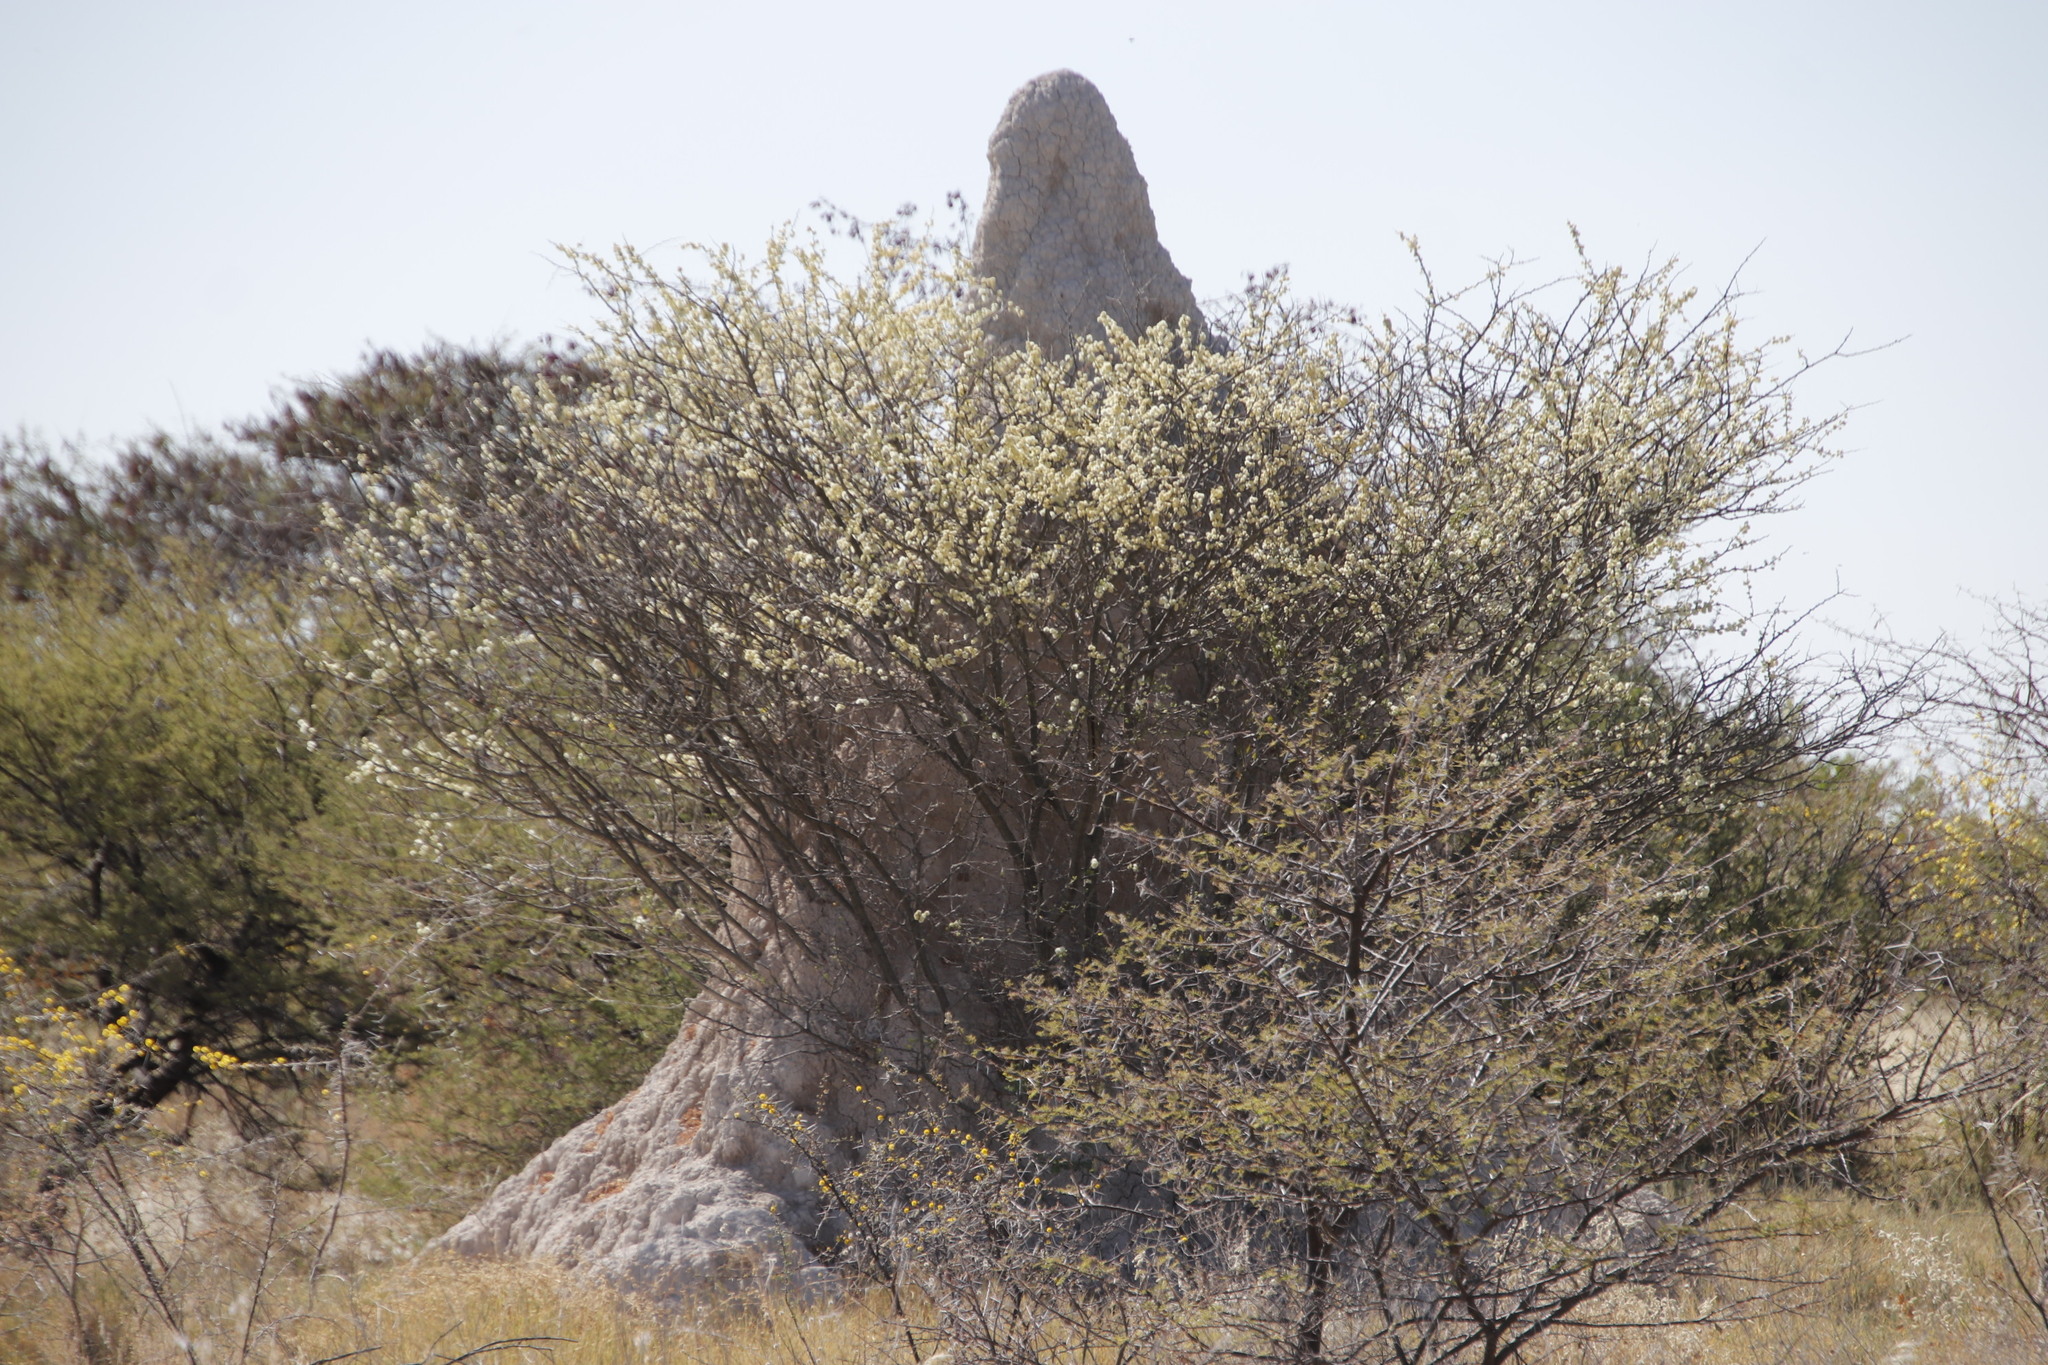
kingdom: Plantae
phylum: Tracheophyta
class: Magnoliopsida
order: Fabales
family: Fabaceae
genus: Senegalia
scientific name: Senegalia mellifera
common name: Hookthorn
